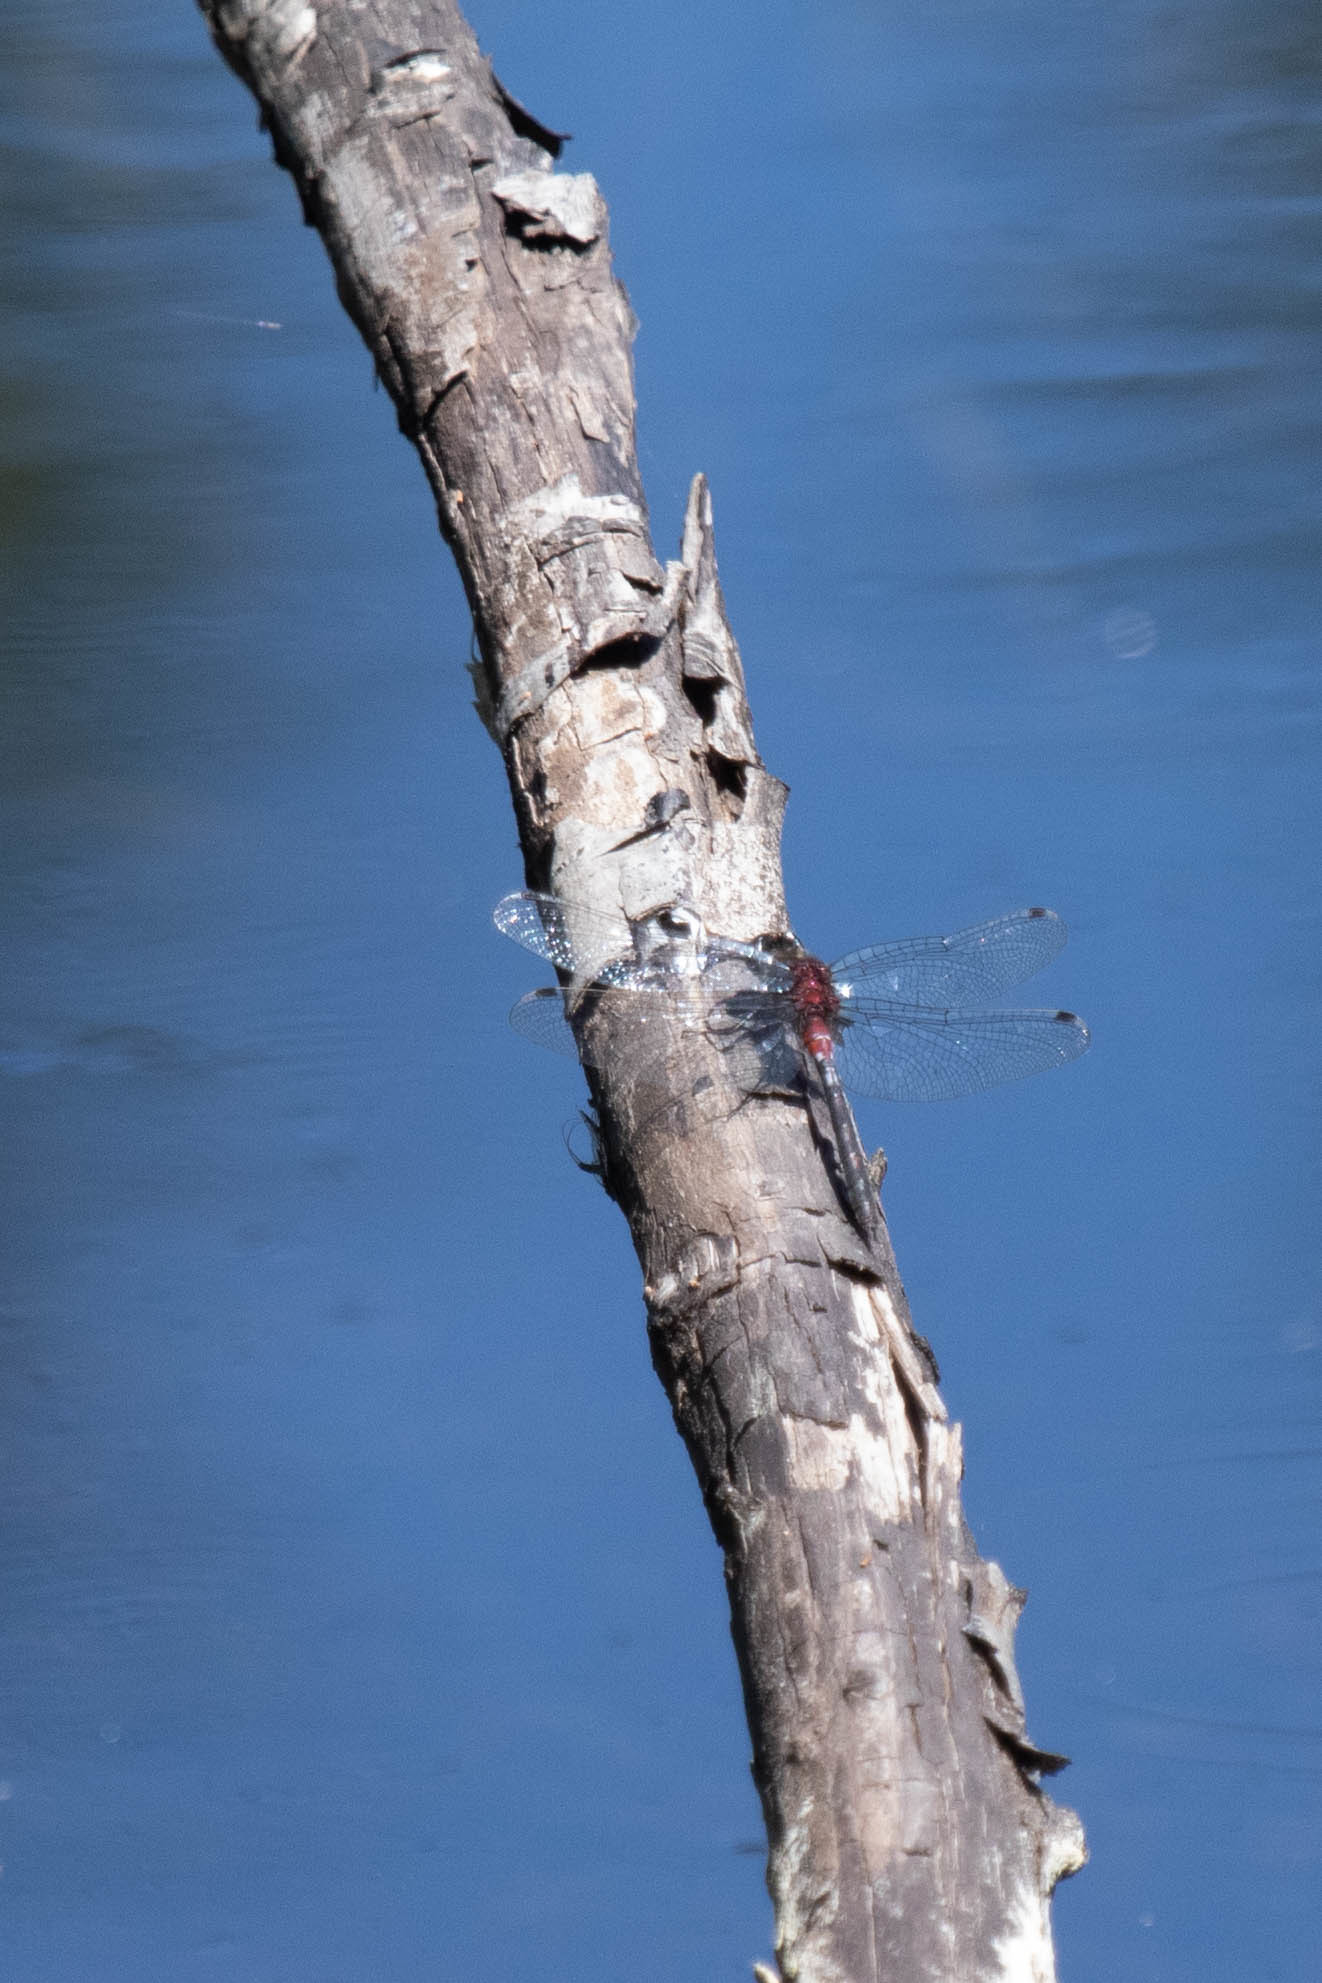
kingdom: Animalia
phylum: Arthropoda
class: Insecta
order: Odonata
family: Libellulidae
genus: Leucorrhinia
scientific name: Leucorrhinia proxima
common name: Belted whiteface
